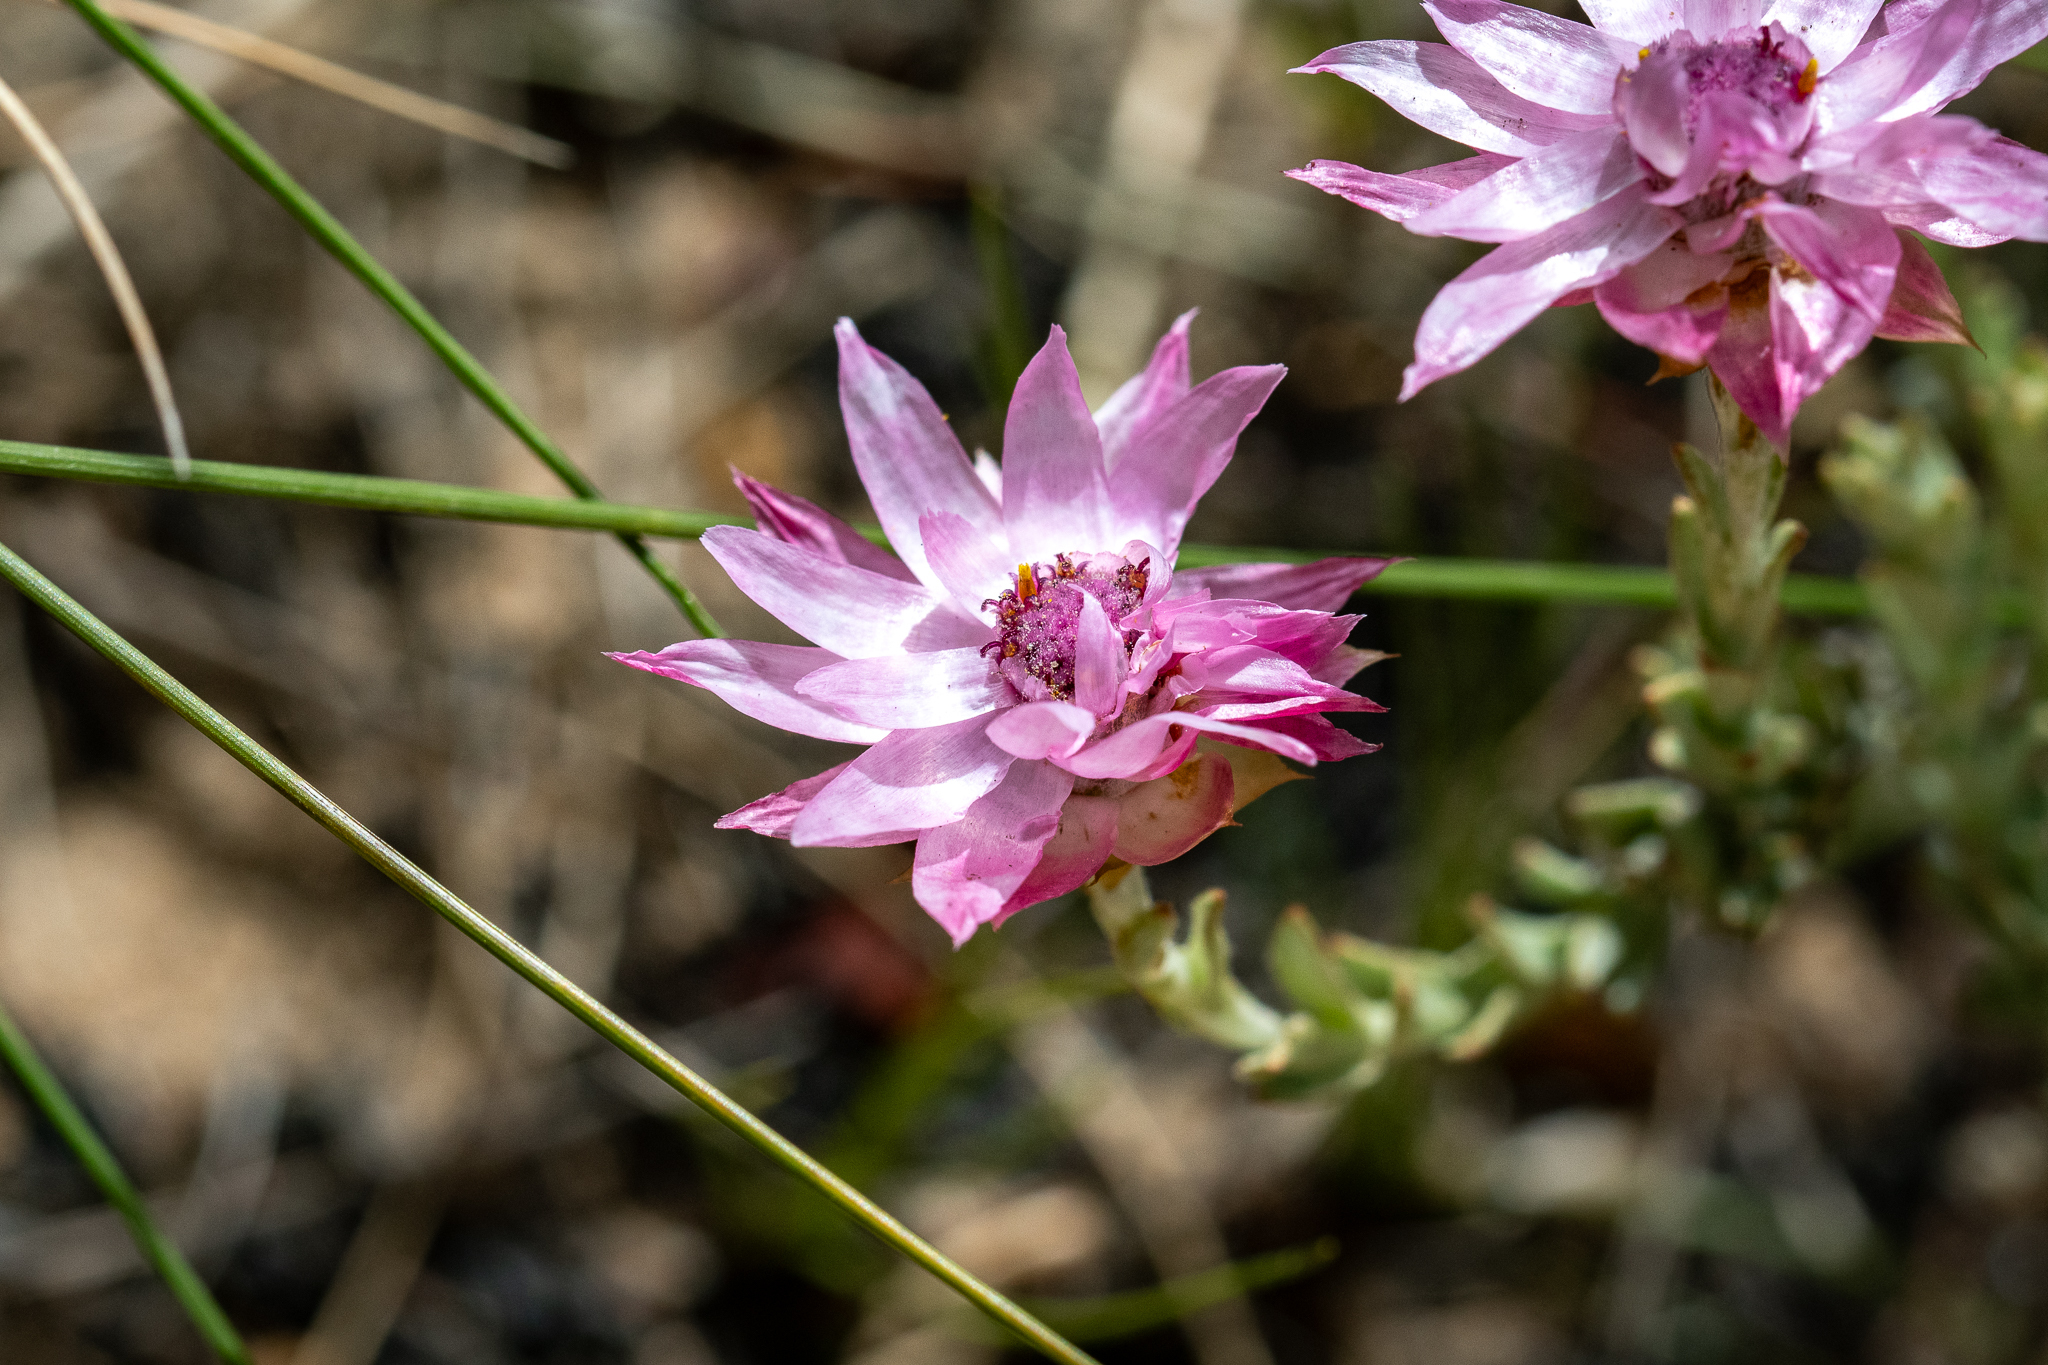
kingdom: Plantae
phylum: Tracheophyta
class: Magnoliopsida
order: Asterales
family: Asteraceae
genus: Syncarpha
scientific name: Syncarpha canescens
